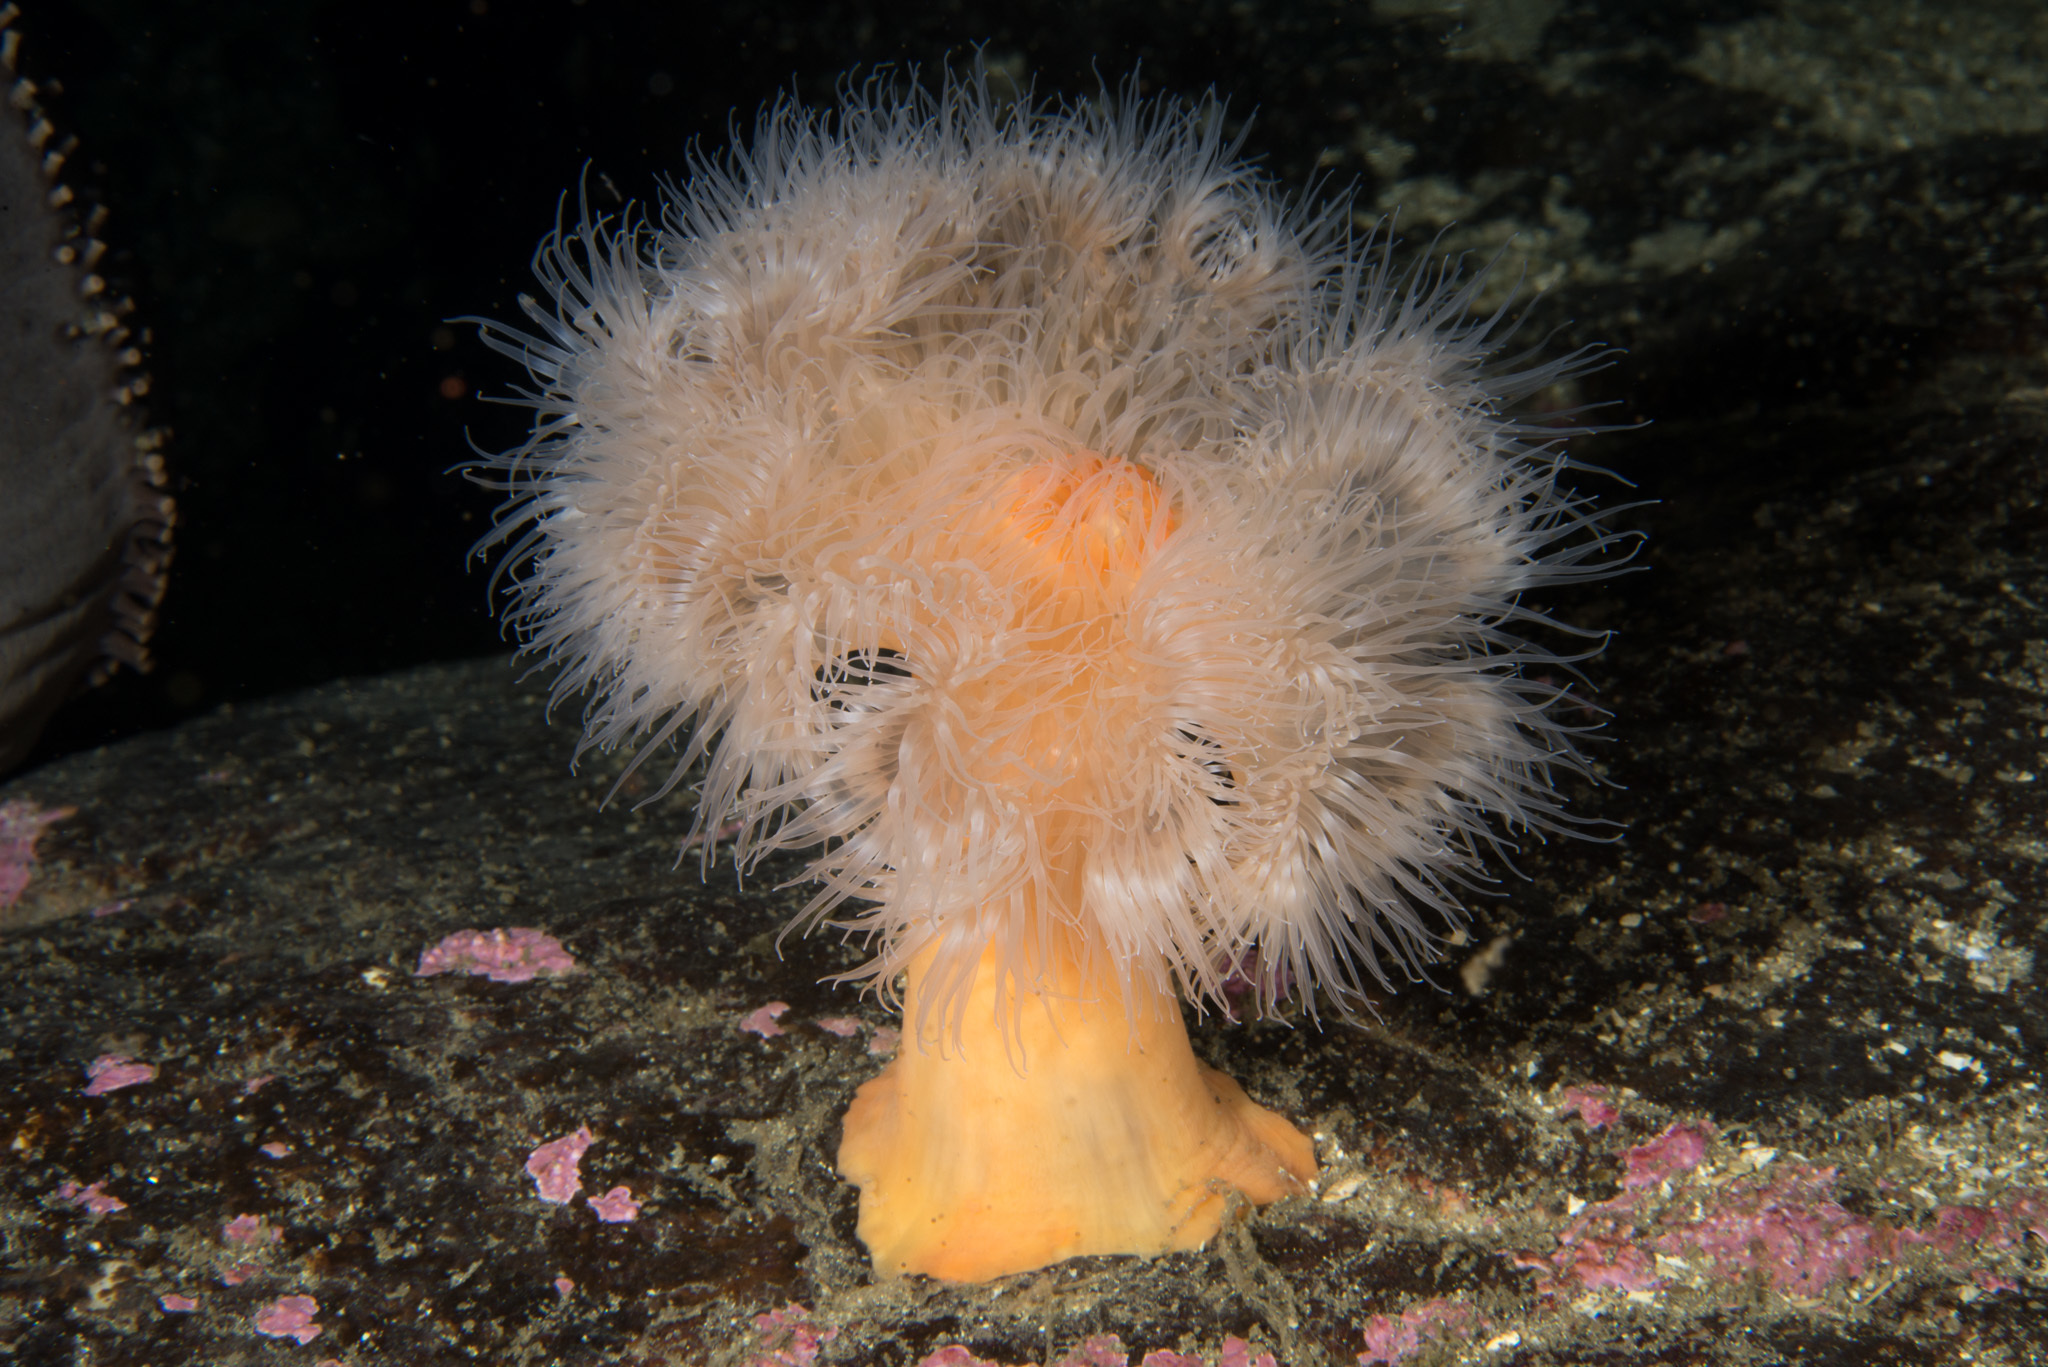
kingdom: Animalia
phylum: Cnidaria
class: Anthozoa
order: Actiniaria
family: Metridiidae
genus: Metridium
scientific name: Metridium senile
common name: Clonal plumose anemone
